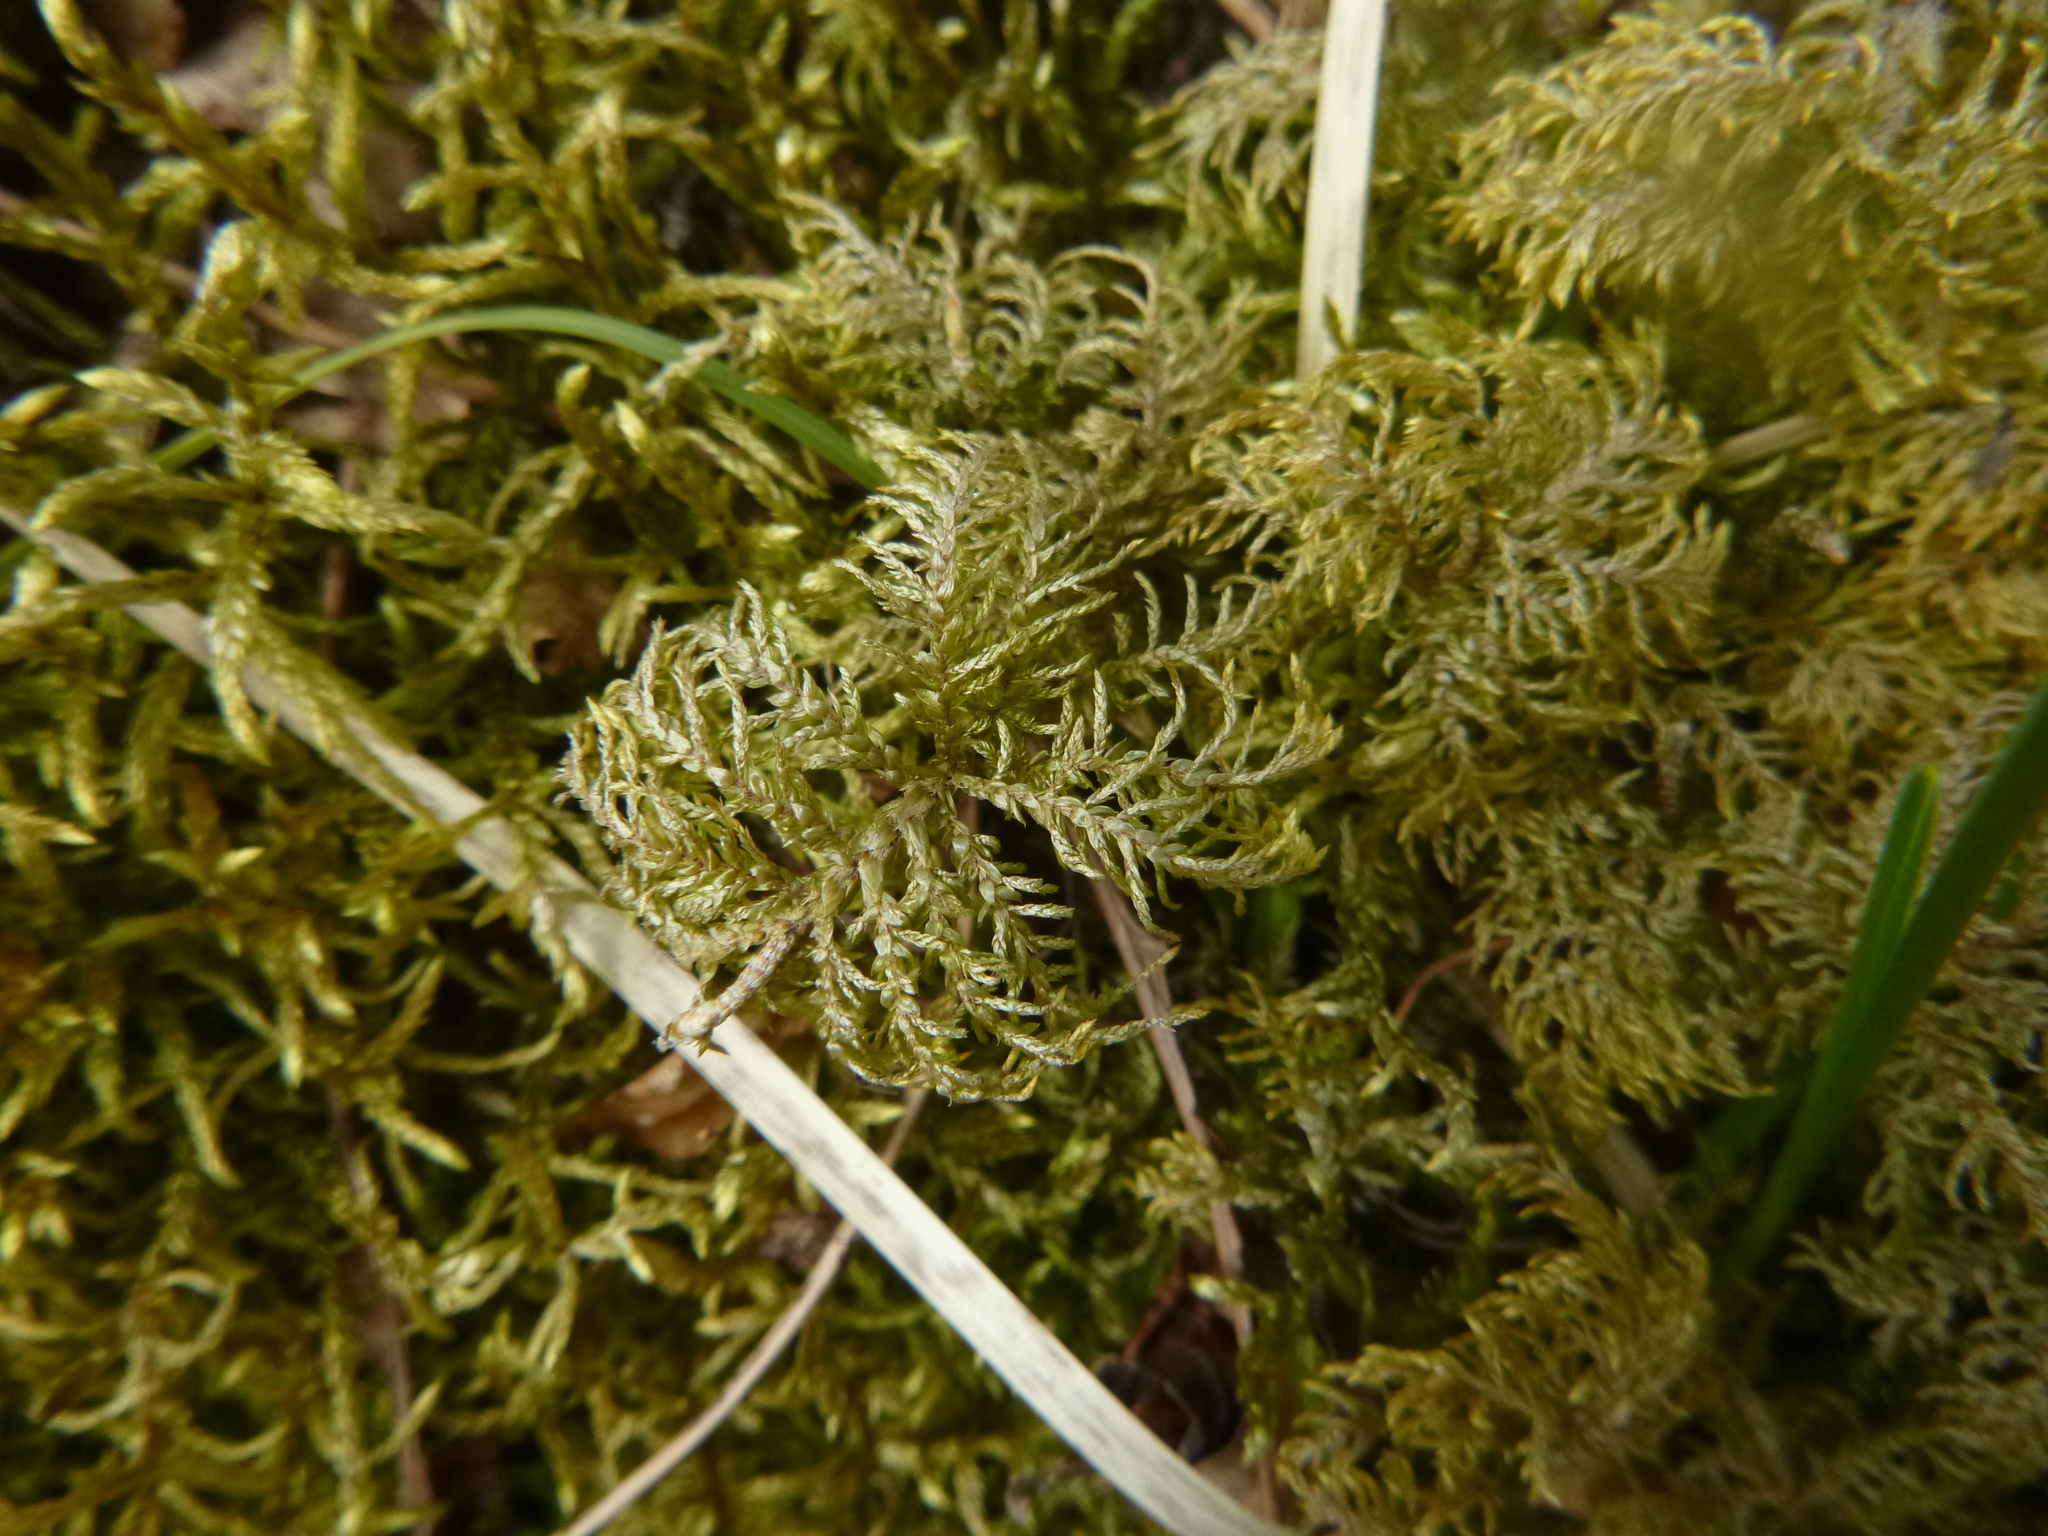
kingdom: Plantae
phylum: Bryophyta
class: Bryopsida
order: Hypnales
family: Hylocomiaceae
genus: Hylocomium
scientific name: Hylocomium splendens
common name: Stairstep moss
